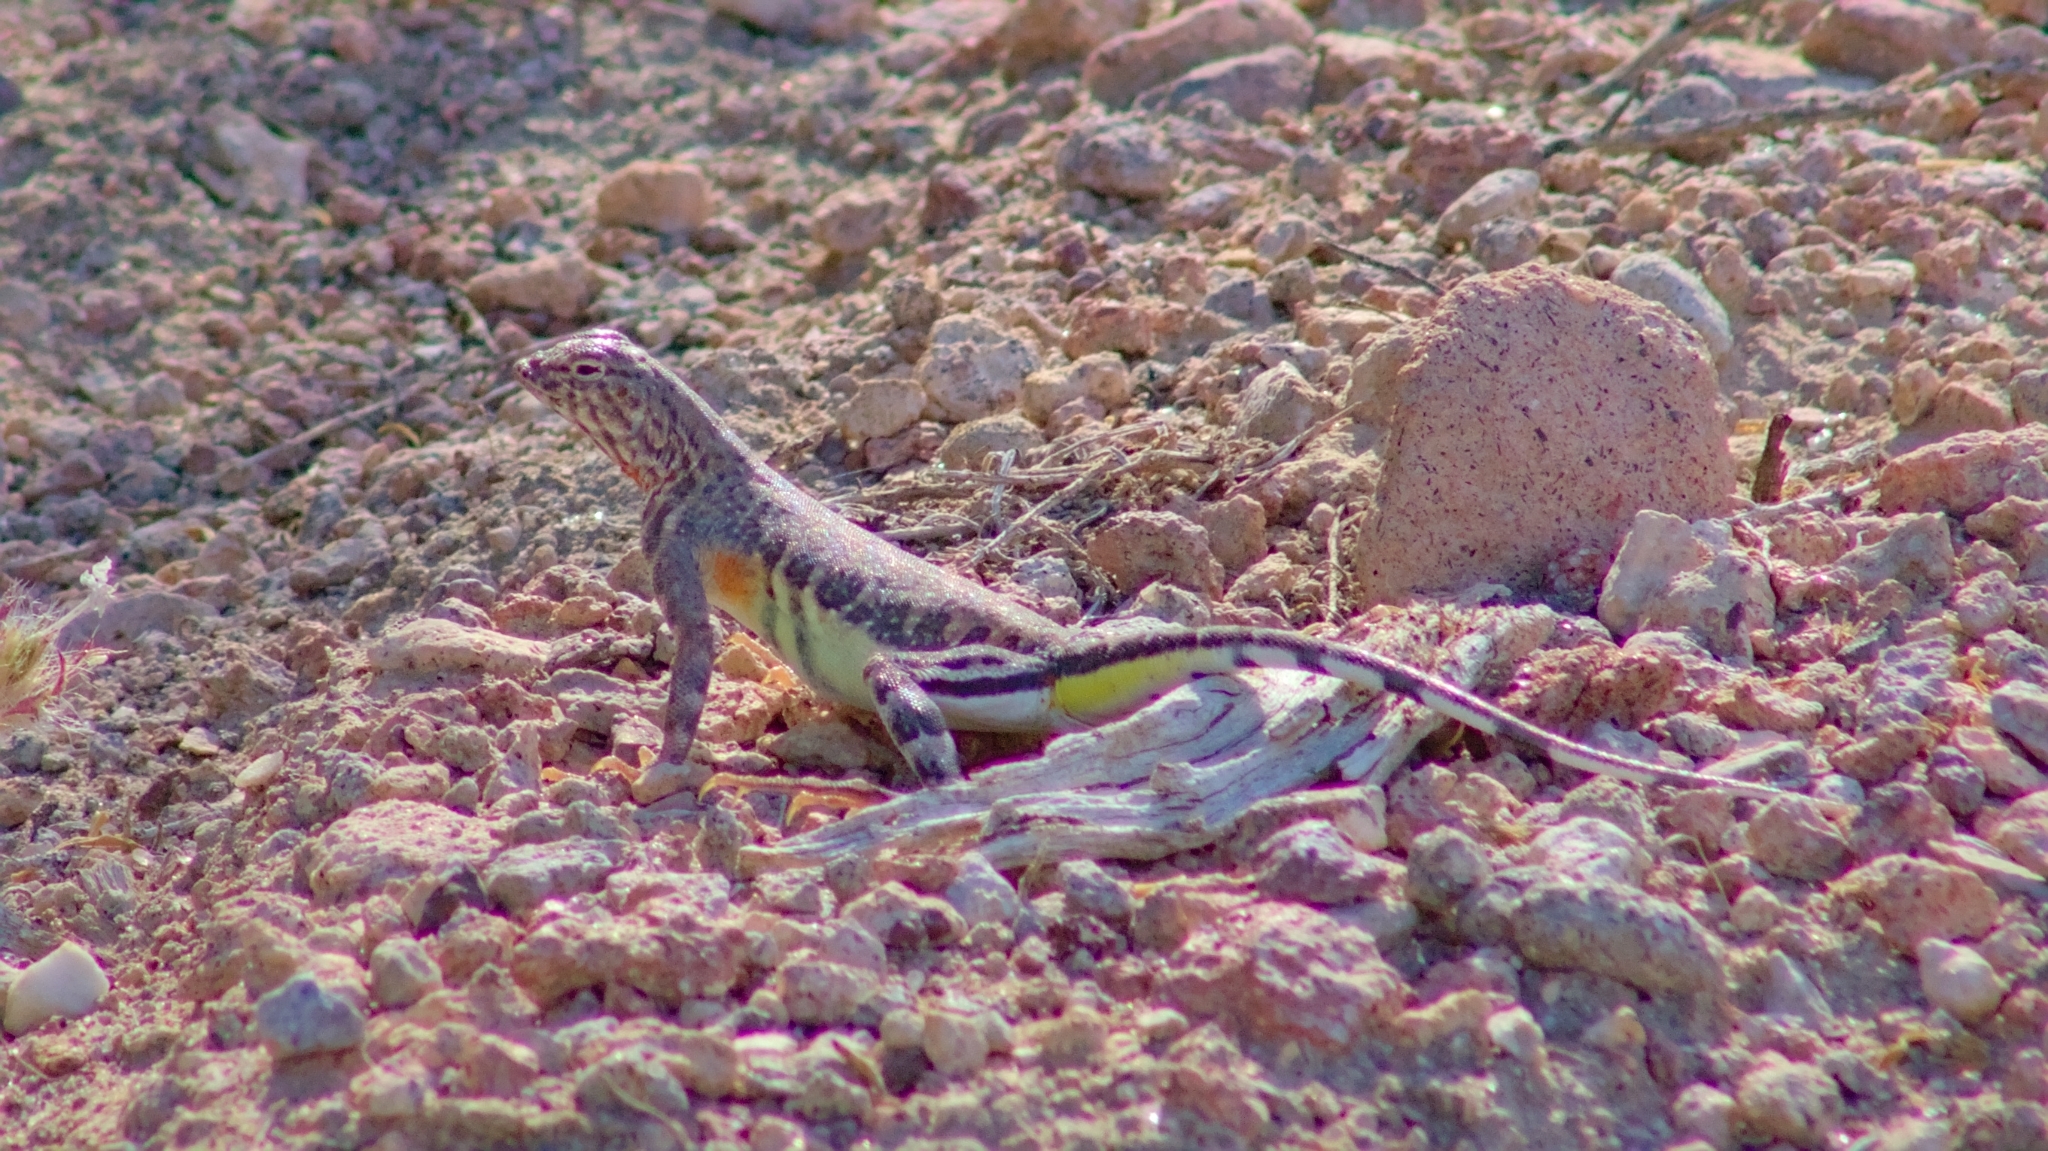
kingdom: Animalia
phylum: Chordata
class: Squamata
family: Phrynosomatidae
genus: Callisaurus
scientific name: Callisaurus draconoides
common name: Zebra-tailed lizard
